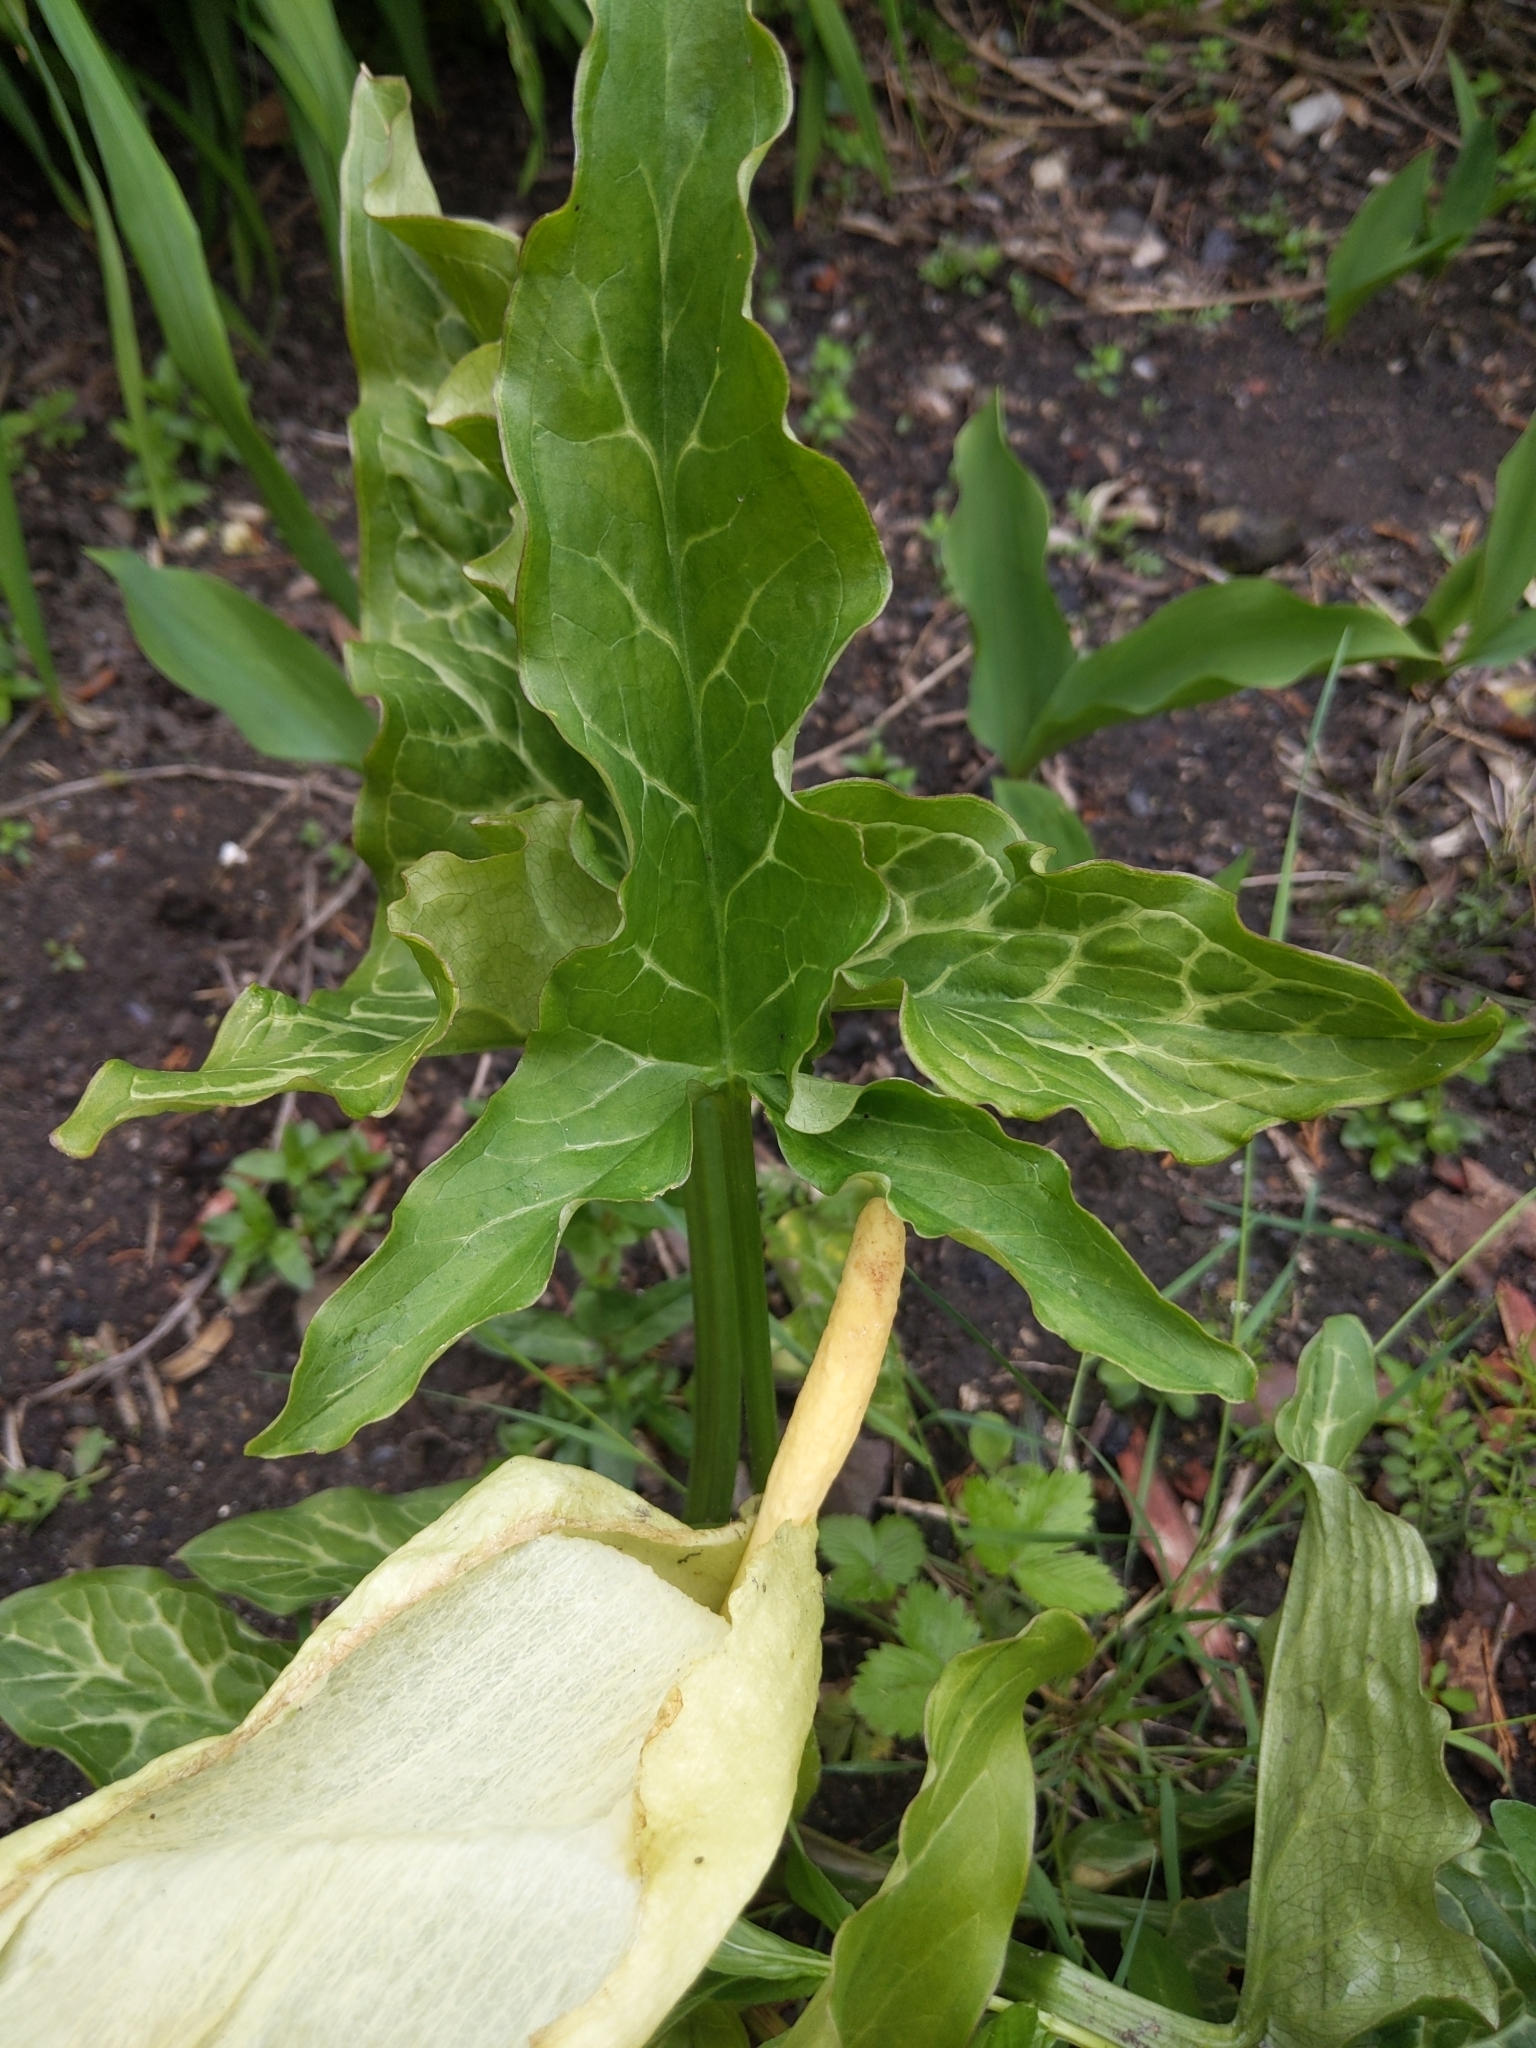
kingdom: Plantae
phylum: Tracheophyta
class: Liliopsida
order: Alismatales
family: Araceae
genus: Arum
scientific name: Arum italicum
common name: Italian lords-and-ladies
